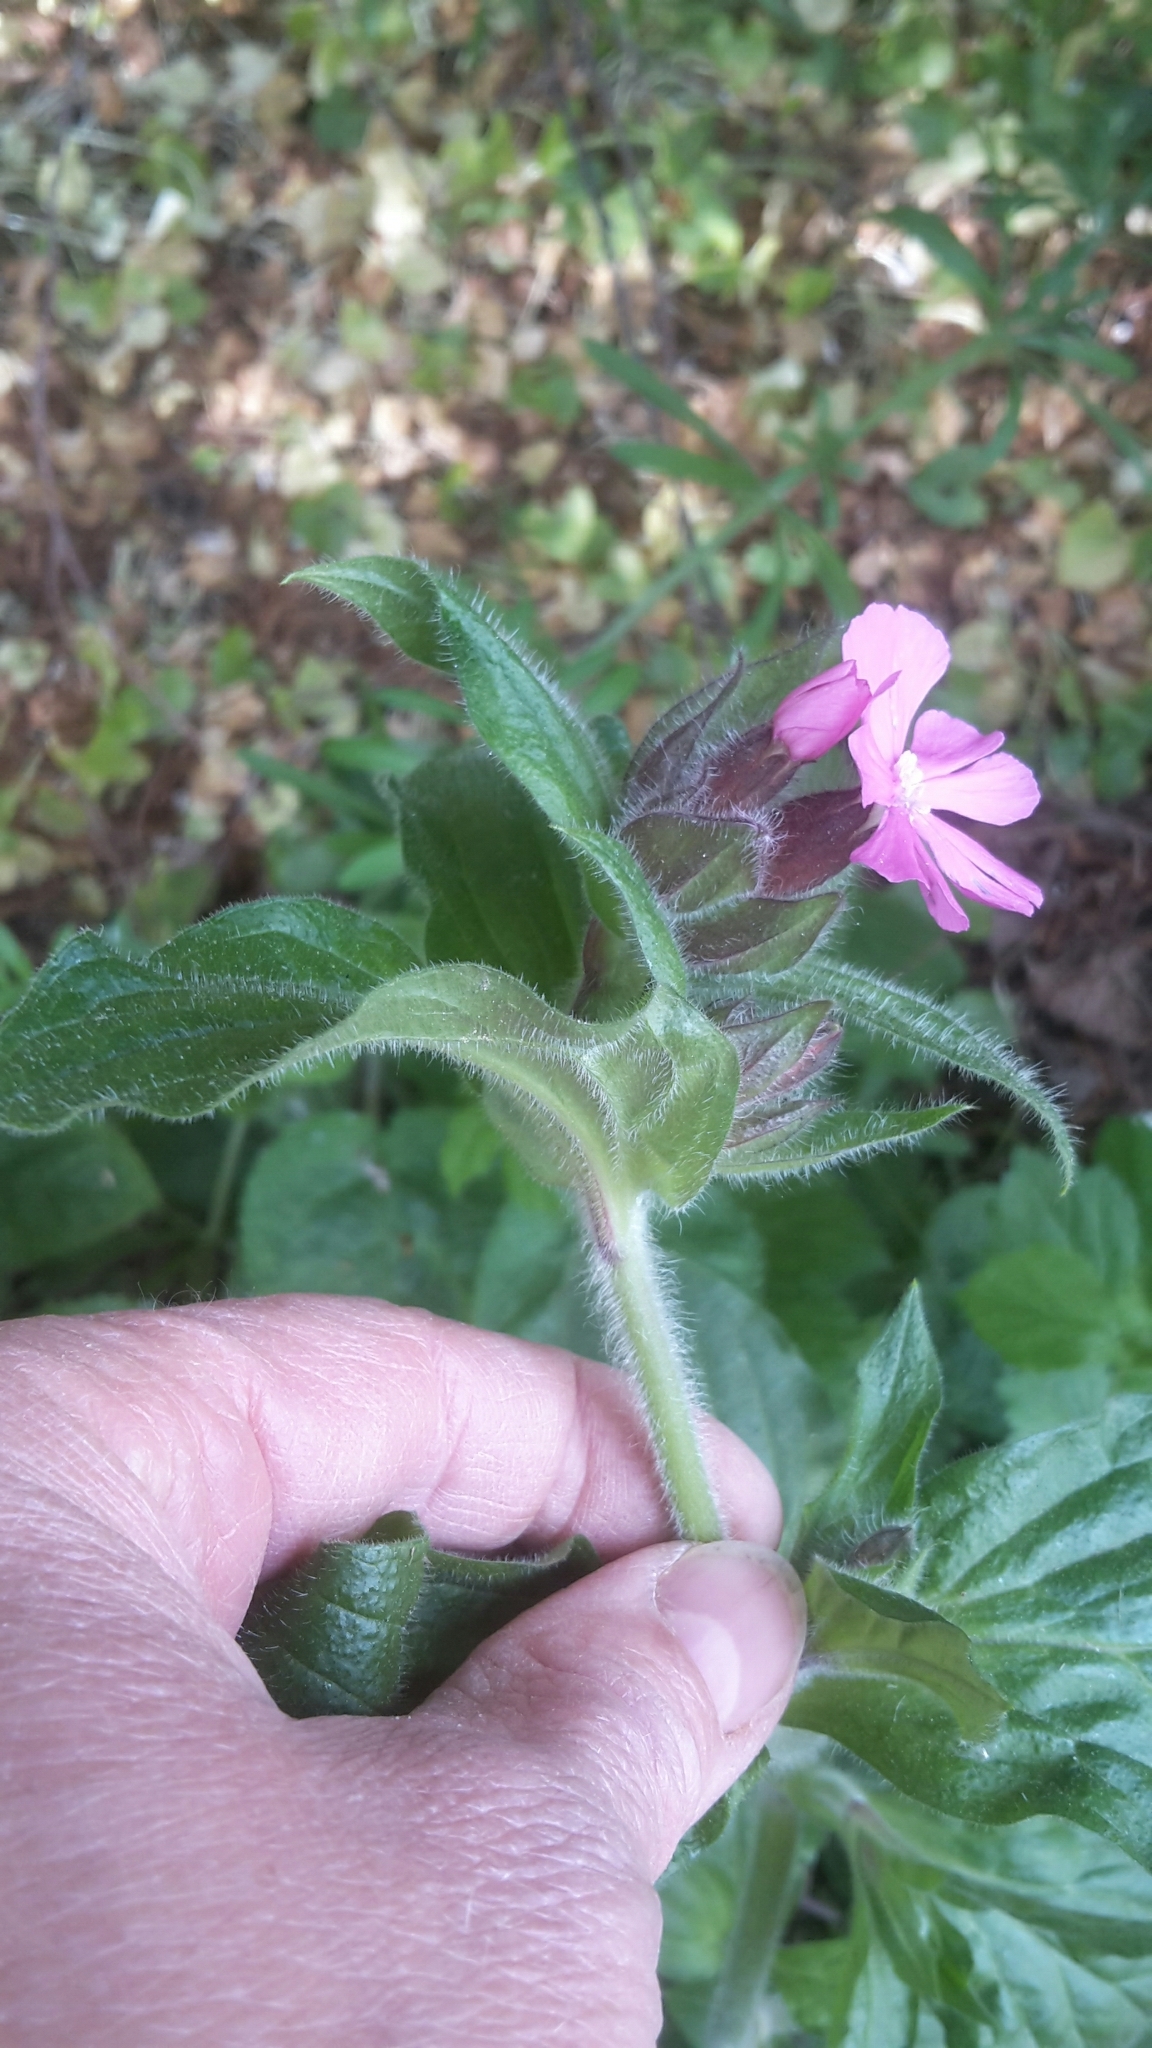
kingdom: Plantae
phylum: Tracheophyta
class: Magnoliopsida
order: Caryophyllales
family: Caryophyllaceae
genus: Silene
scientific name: Silene dioica
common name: Red campion
